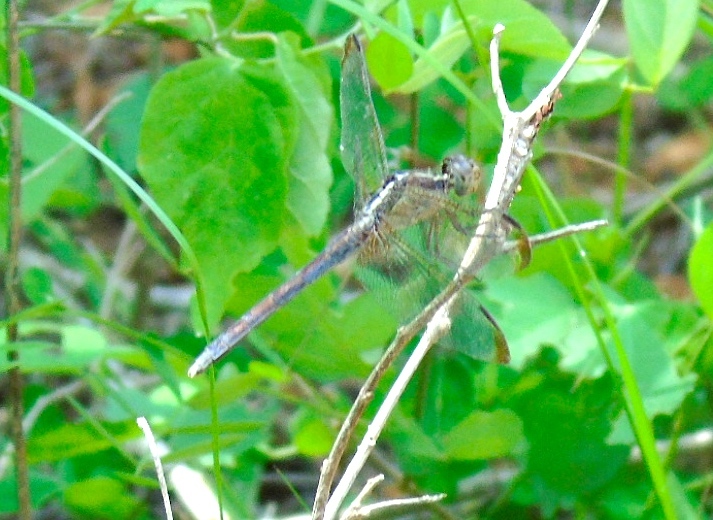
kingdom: Animalia
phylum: Arthropoda
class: Insecta
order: Odonata
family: Libellulidae
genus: Erythrodiplax
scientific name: Erythrodiplax
